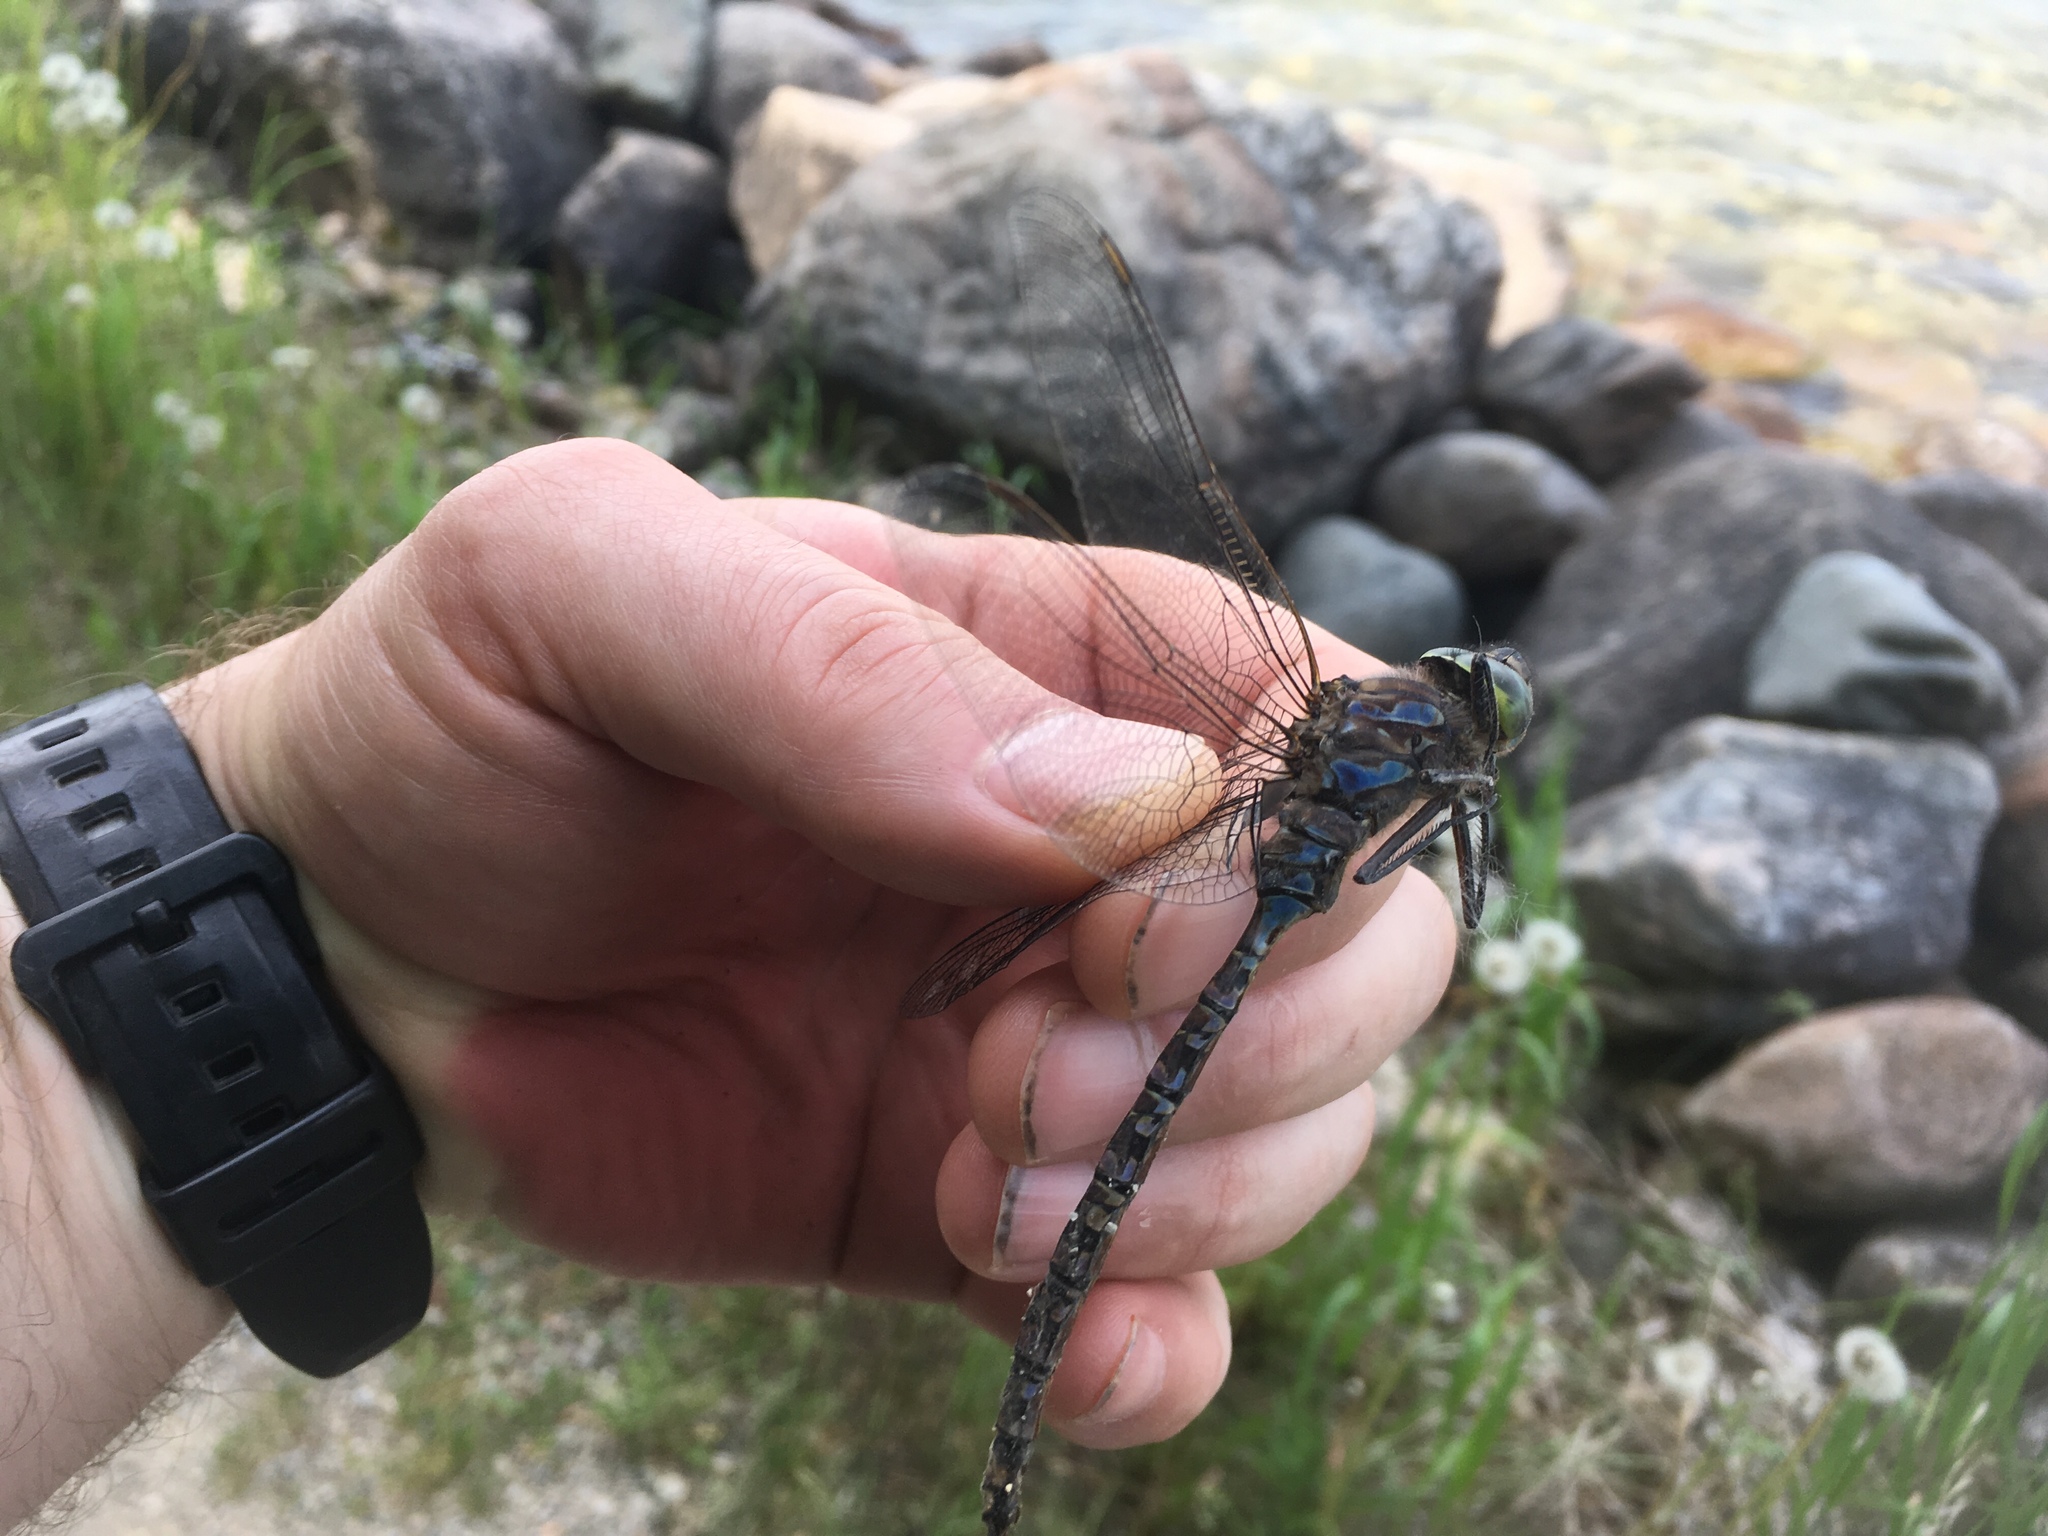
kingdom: Animalia
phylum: Arthropoda
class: Insecta
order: Odonata
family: Aeshnidae
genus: Aeshna
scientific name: Aeshna eremita
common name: Lake darner
